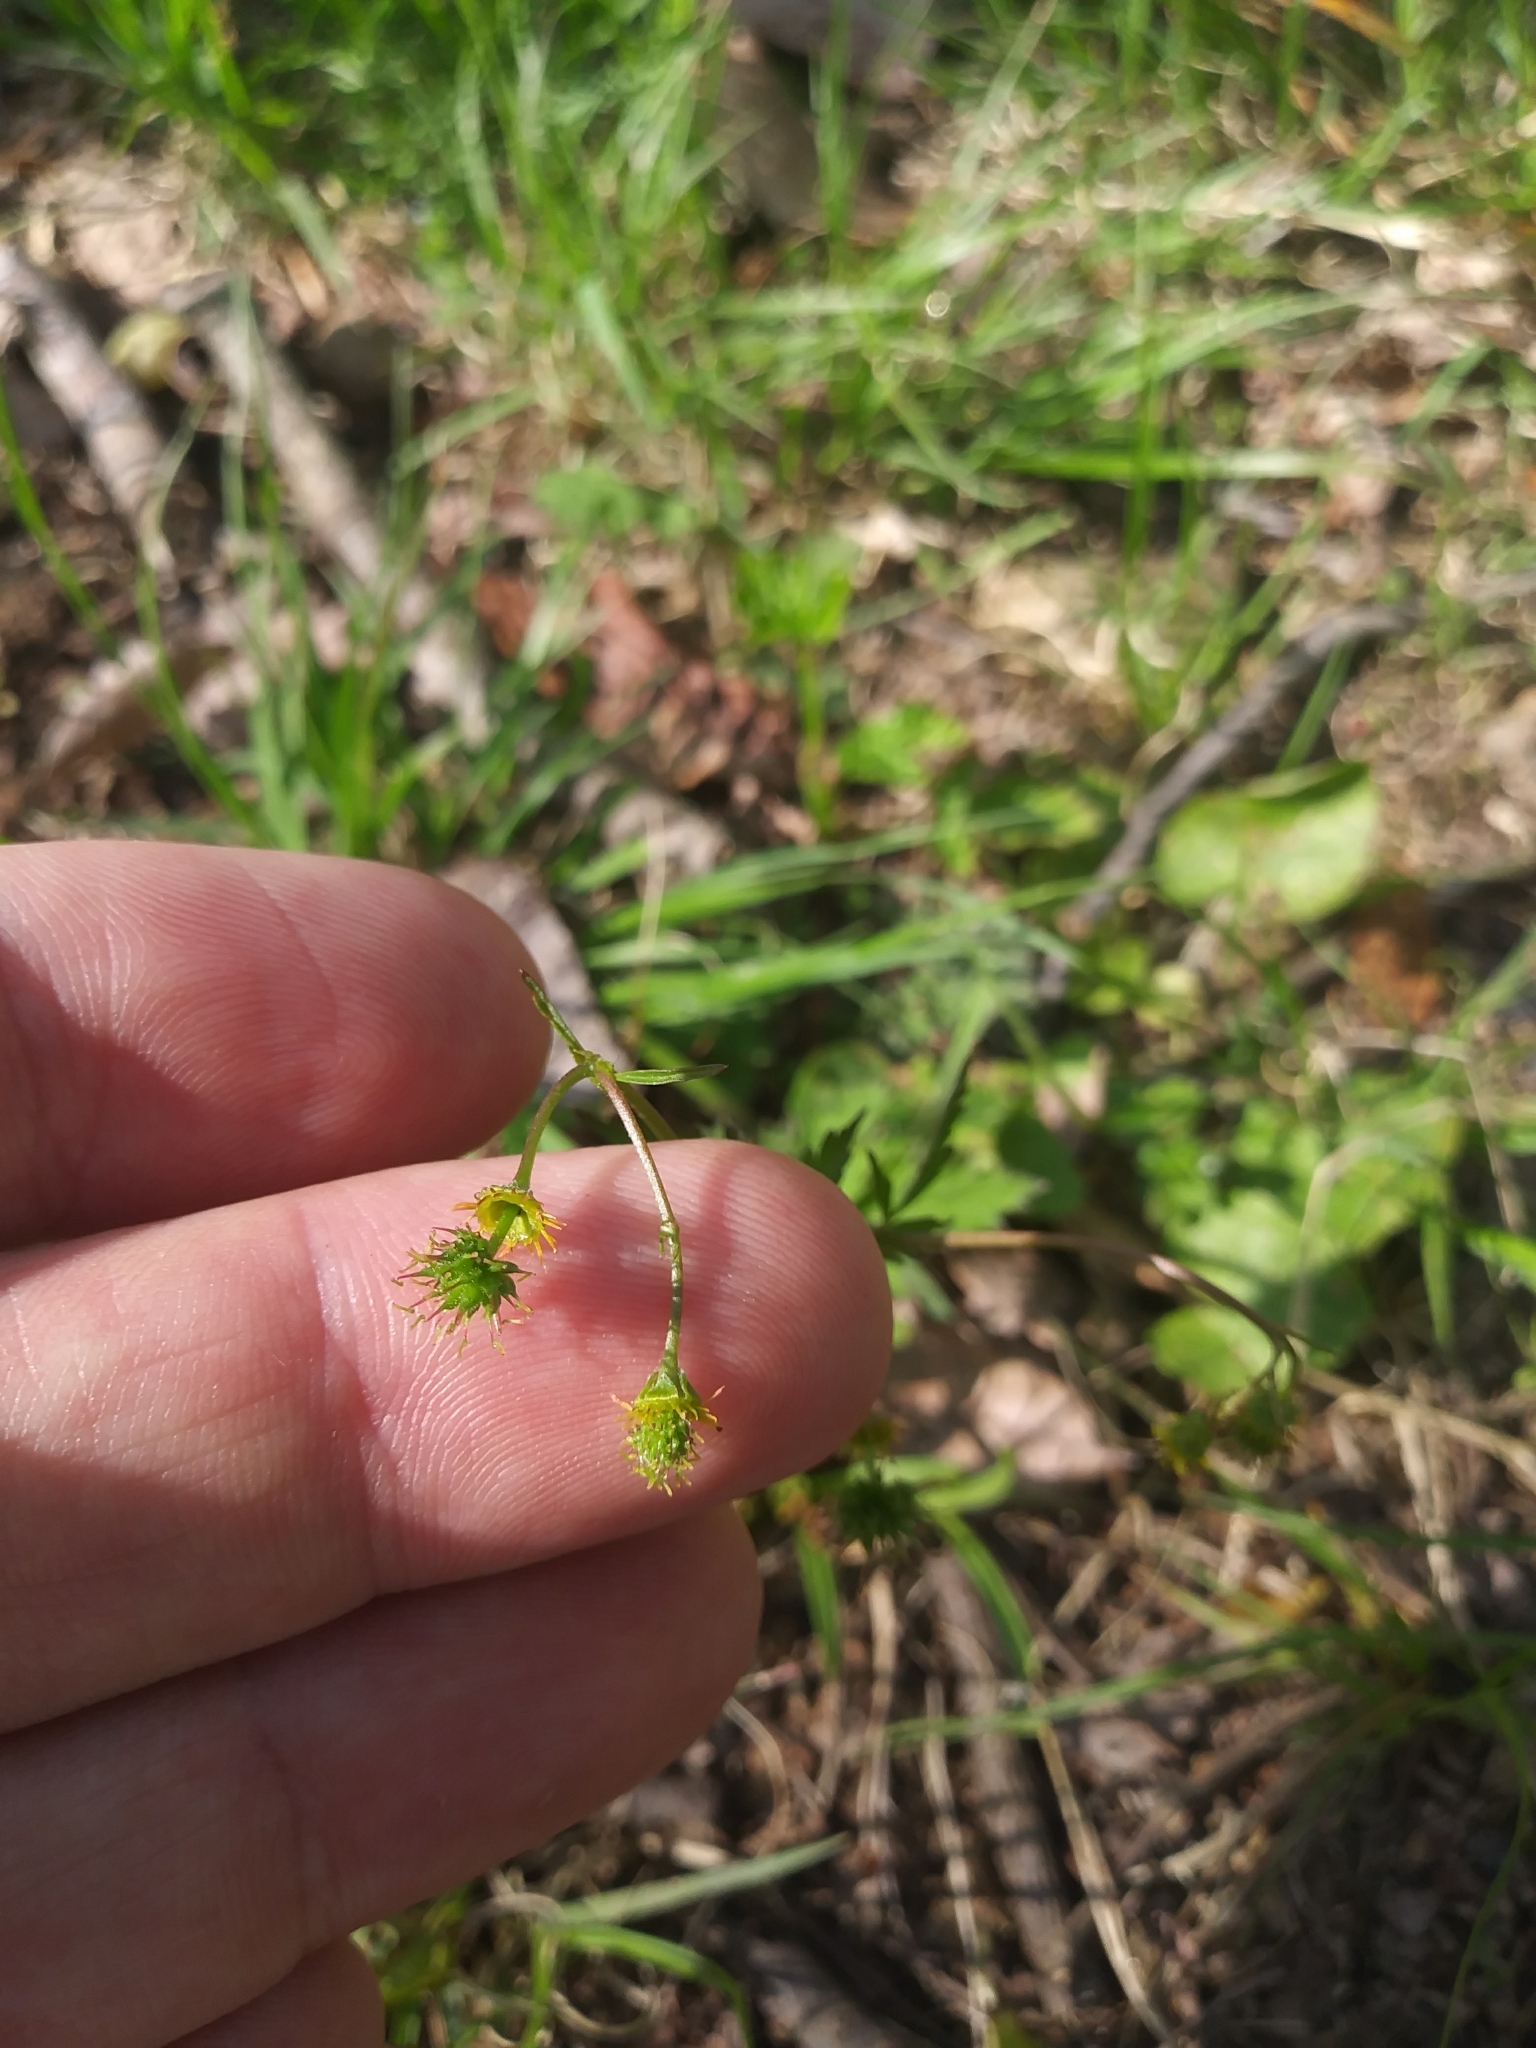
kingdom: Plantae
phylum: Tracheophyta
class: Magnoliopsida
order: Rosales
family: Rosaceae
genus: Geum
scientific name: Geum vernum
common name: Spring avens
